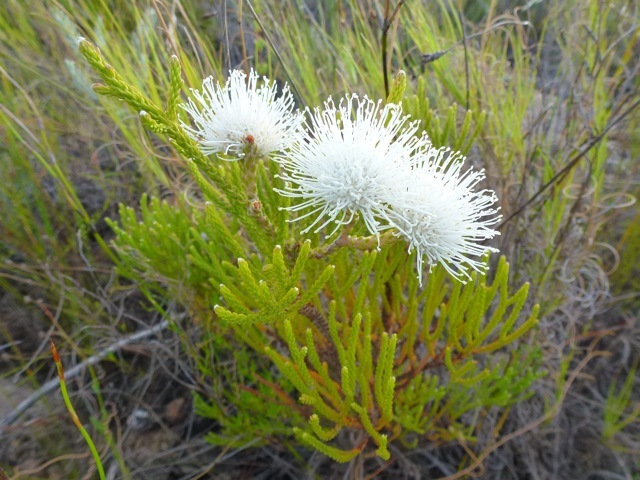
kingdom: Plantae
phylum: Tracheophyta
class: Magnoliopsida
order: Bruniales
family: Bruniaceae
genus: Brunia
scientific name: Brunia noduliflora
